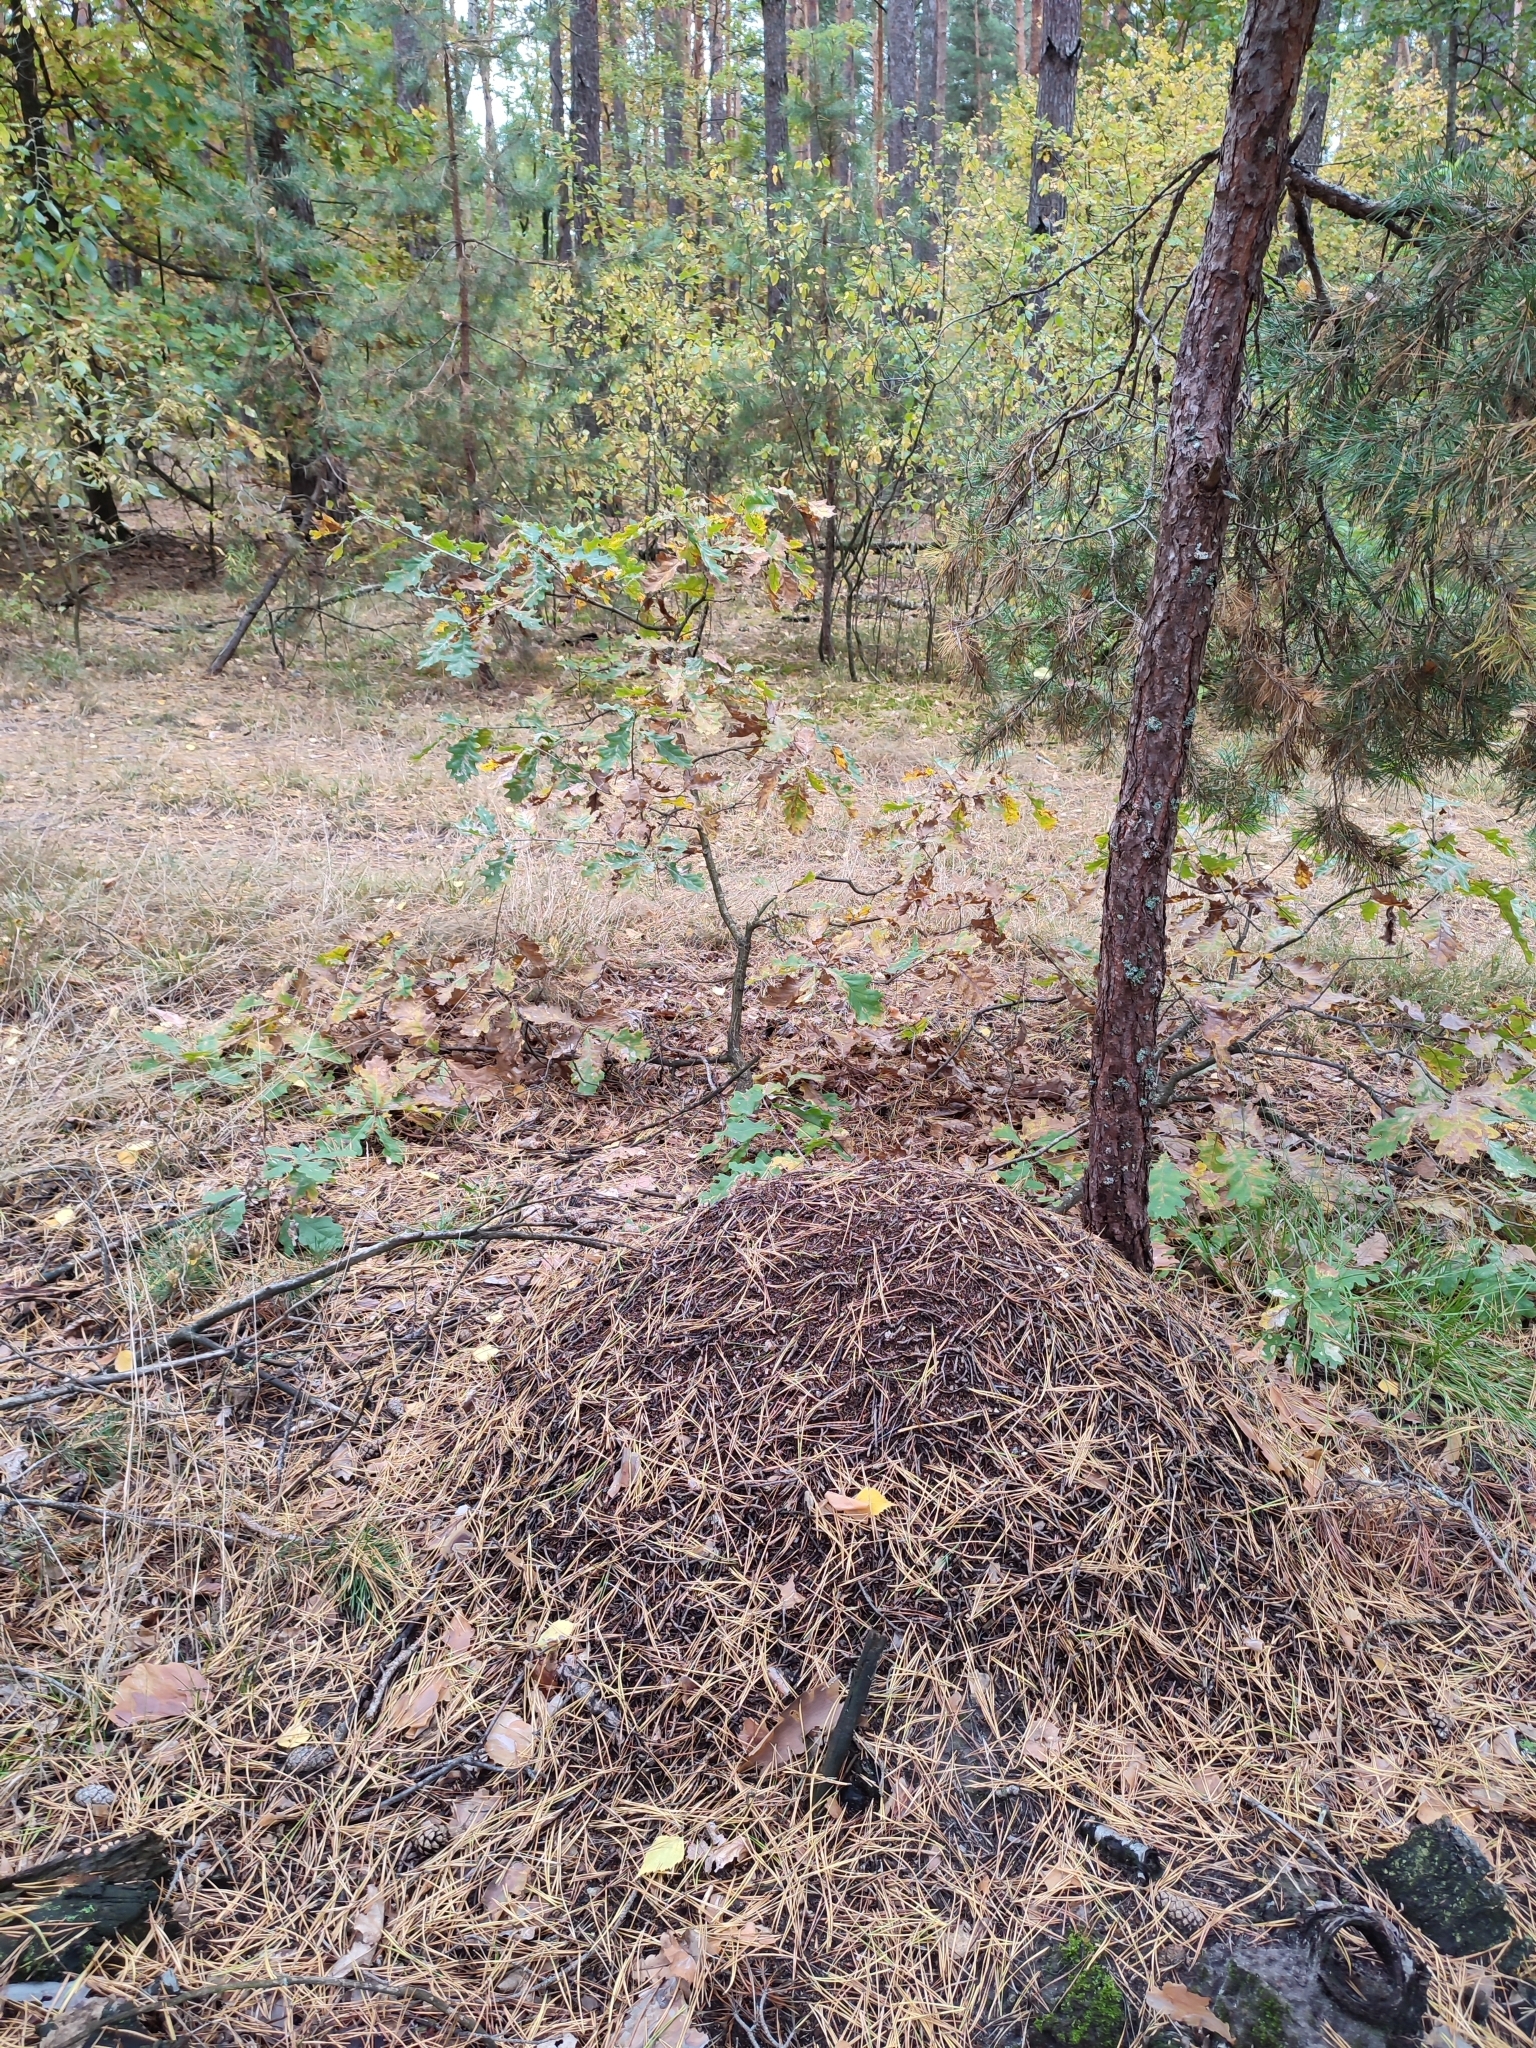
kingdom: Plantae
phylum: Tracheophyta
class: Magnoliopsida
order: Fagales
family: Fagaceae
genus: Quercus
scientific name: Quercus robur
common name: Pedunculate oak
